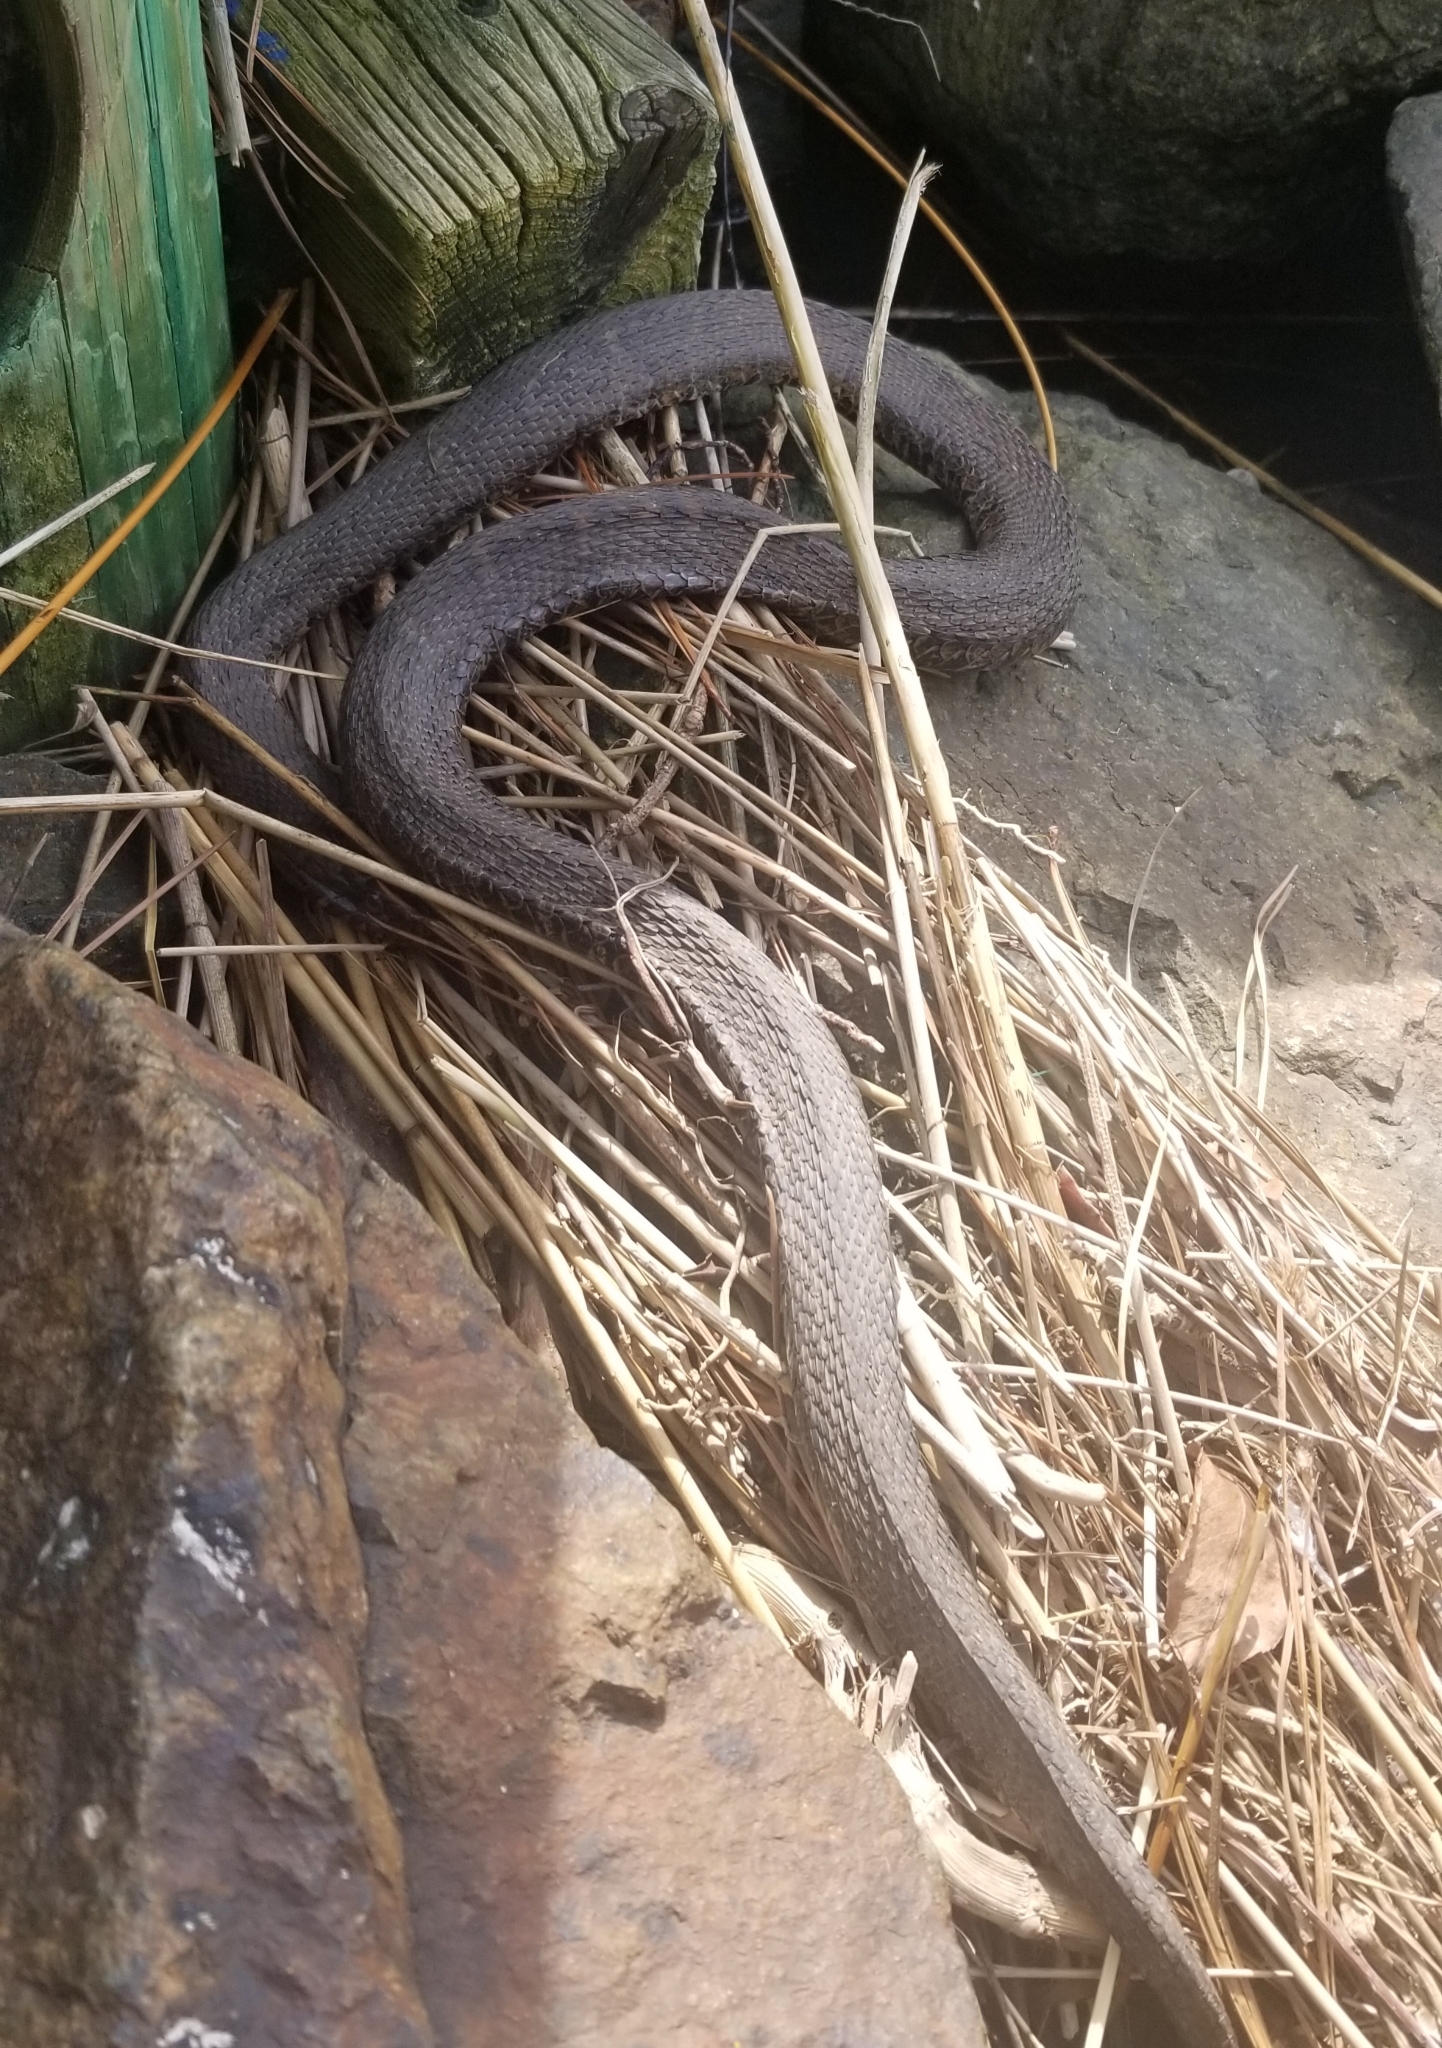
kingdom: Animalia
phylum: Chordata
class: Squamata
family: Colubridae
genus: Nerodia
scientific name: Nerodia sipedon
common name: Northern water snake
